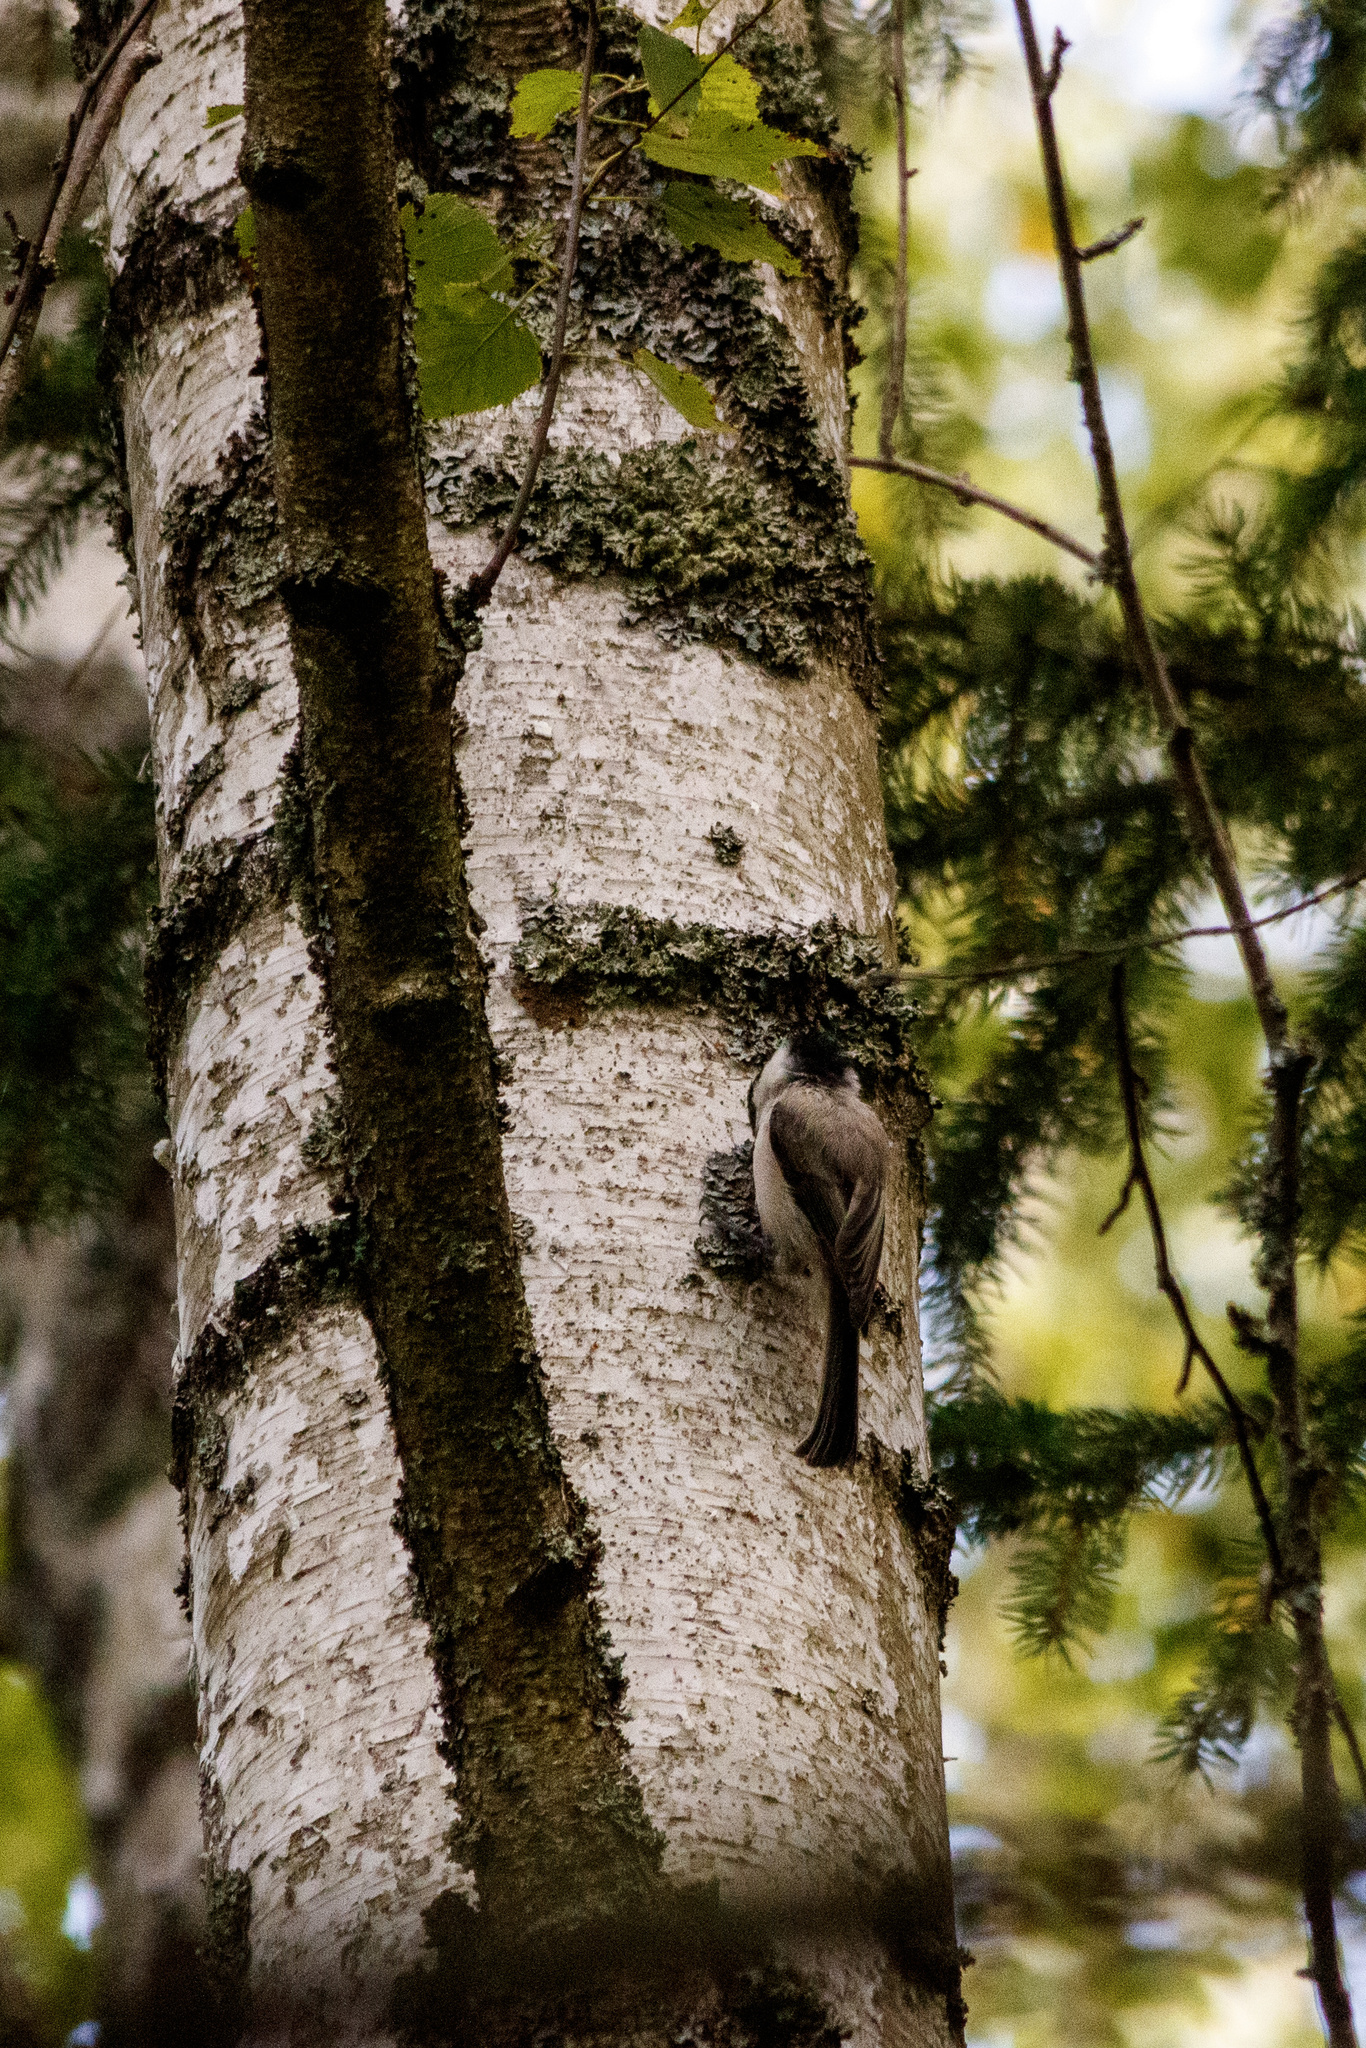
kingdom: Animalia
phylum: Chordata
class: Aves
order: Passeriformes
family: Paridae
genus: Poecile
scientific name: Poecile montanus
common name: Willow tit
